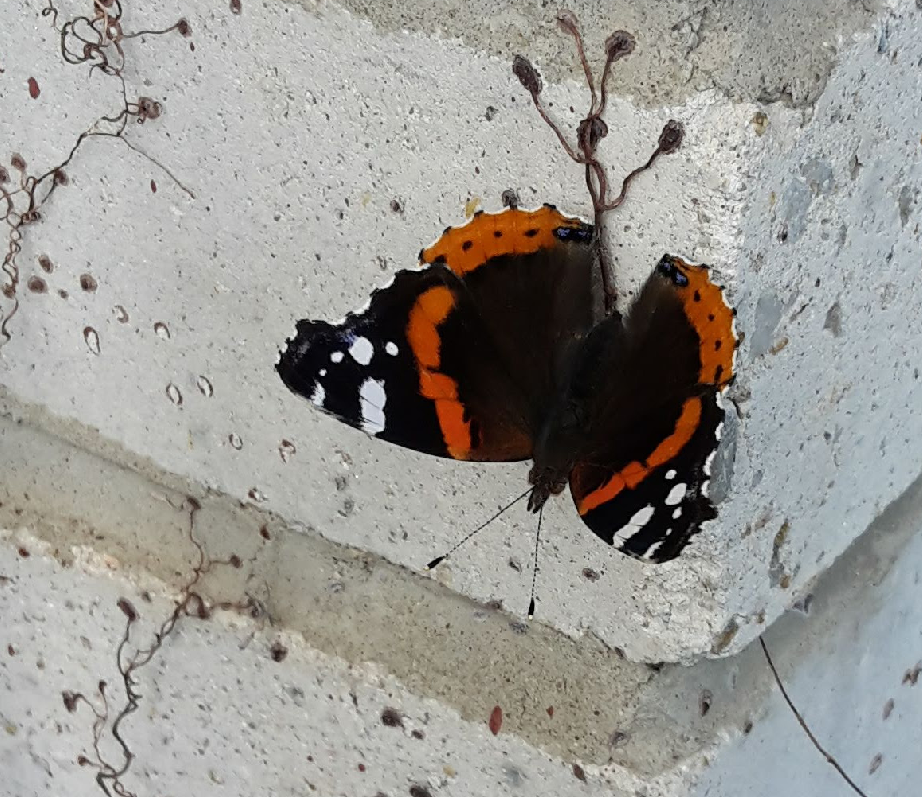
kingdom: Animalia
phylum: Arthropoda
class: Insecta
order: Lepidoptera
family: Nymphalidae
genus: Vanessa
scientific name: Vanessa atalanta
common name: Red admiral
